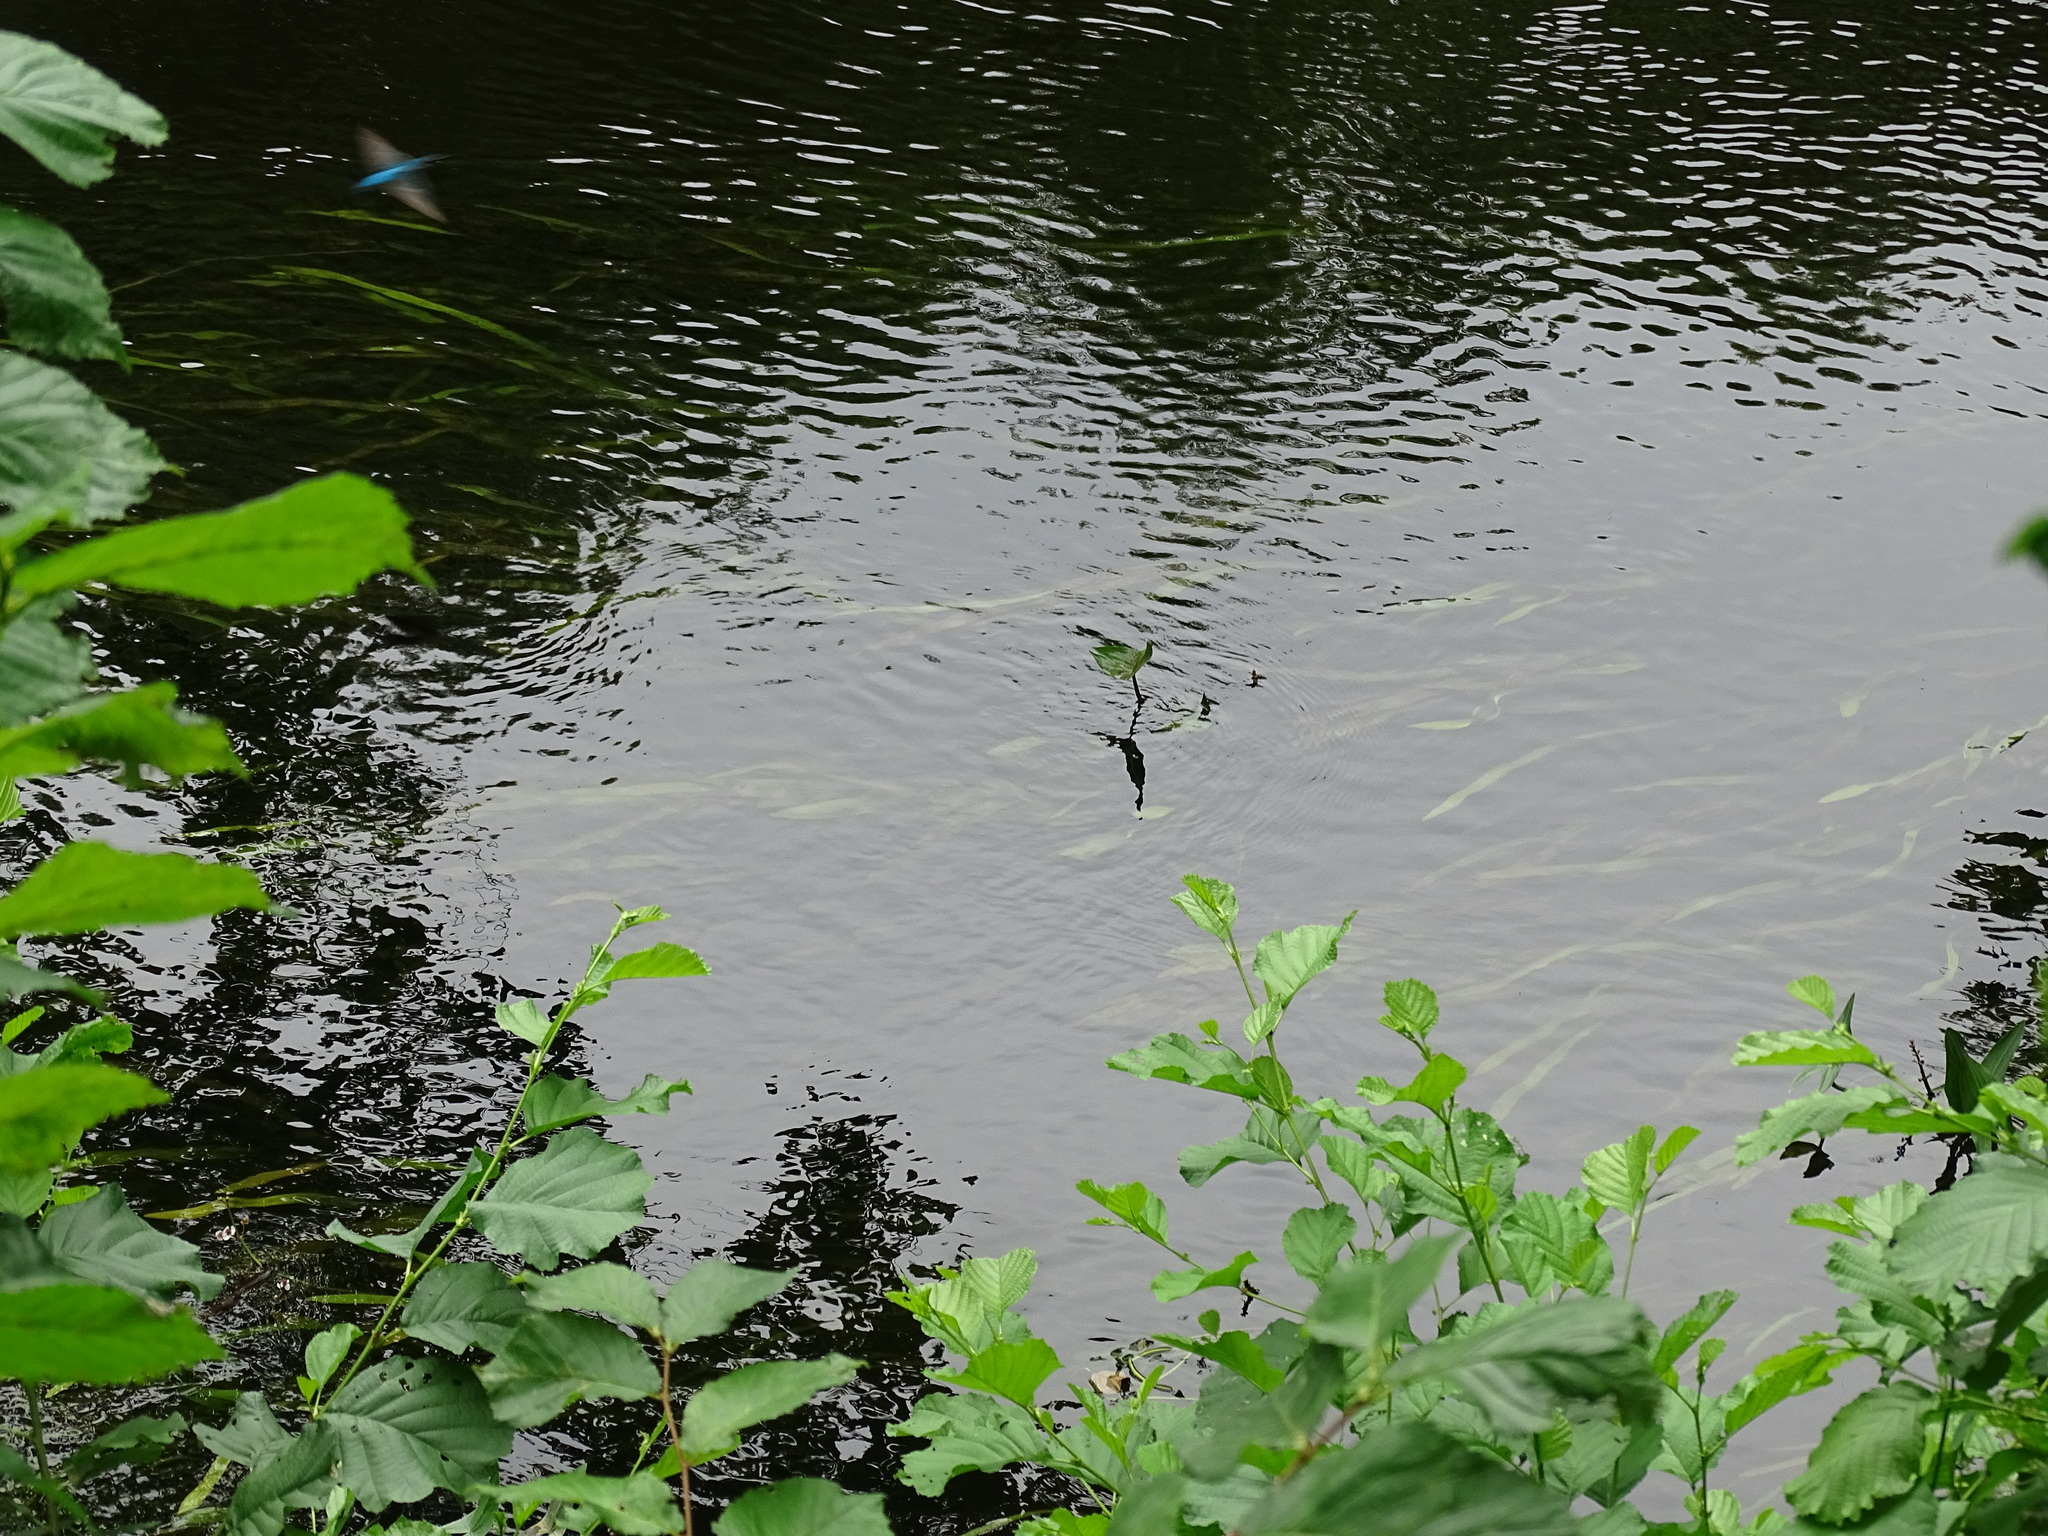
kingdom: Animalia
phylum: Chordata
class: Aves
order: Coraciiformes
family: Alcedinidae
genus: Alcedo
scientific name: Alcedo atthis
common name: Common kingfisher
